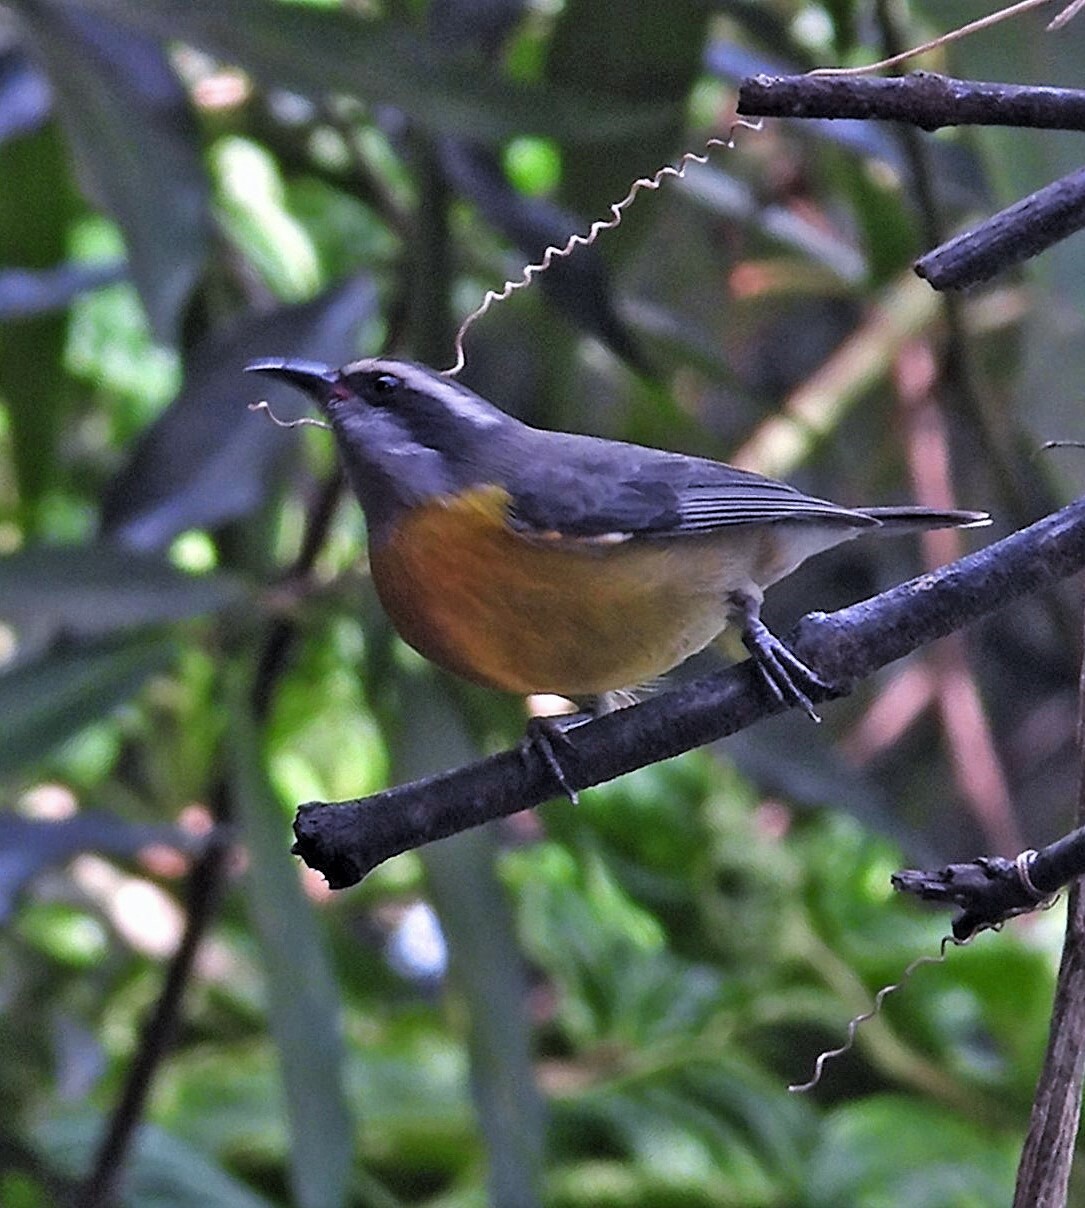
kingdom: Animalia
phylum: Chordata
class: Aves
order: Passeriformes
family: Thraupidae
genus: Coereba
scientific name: Coereba flaveola
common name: Bananaquit
